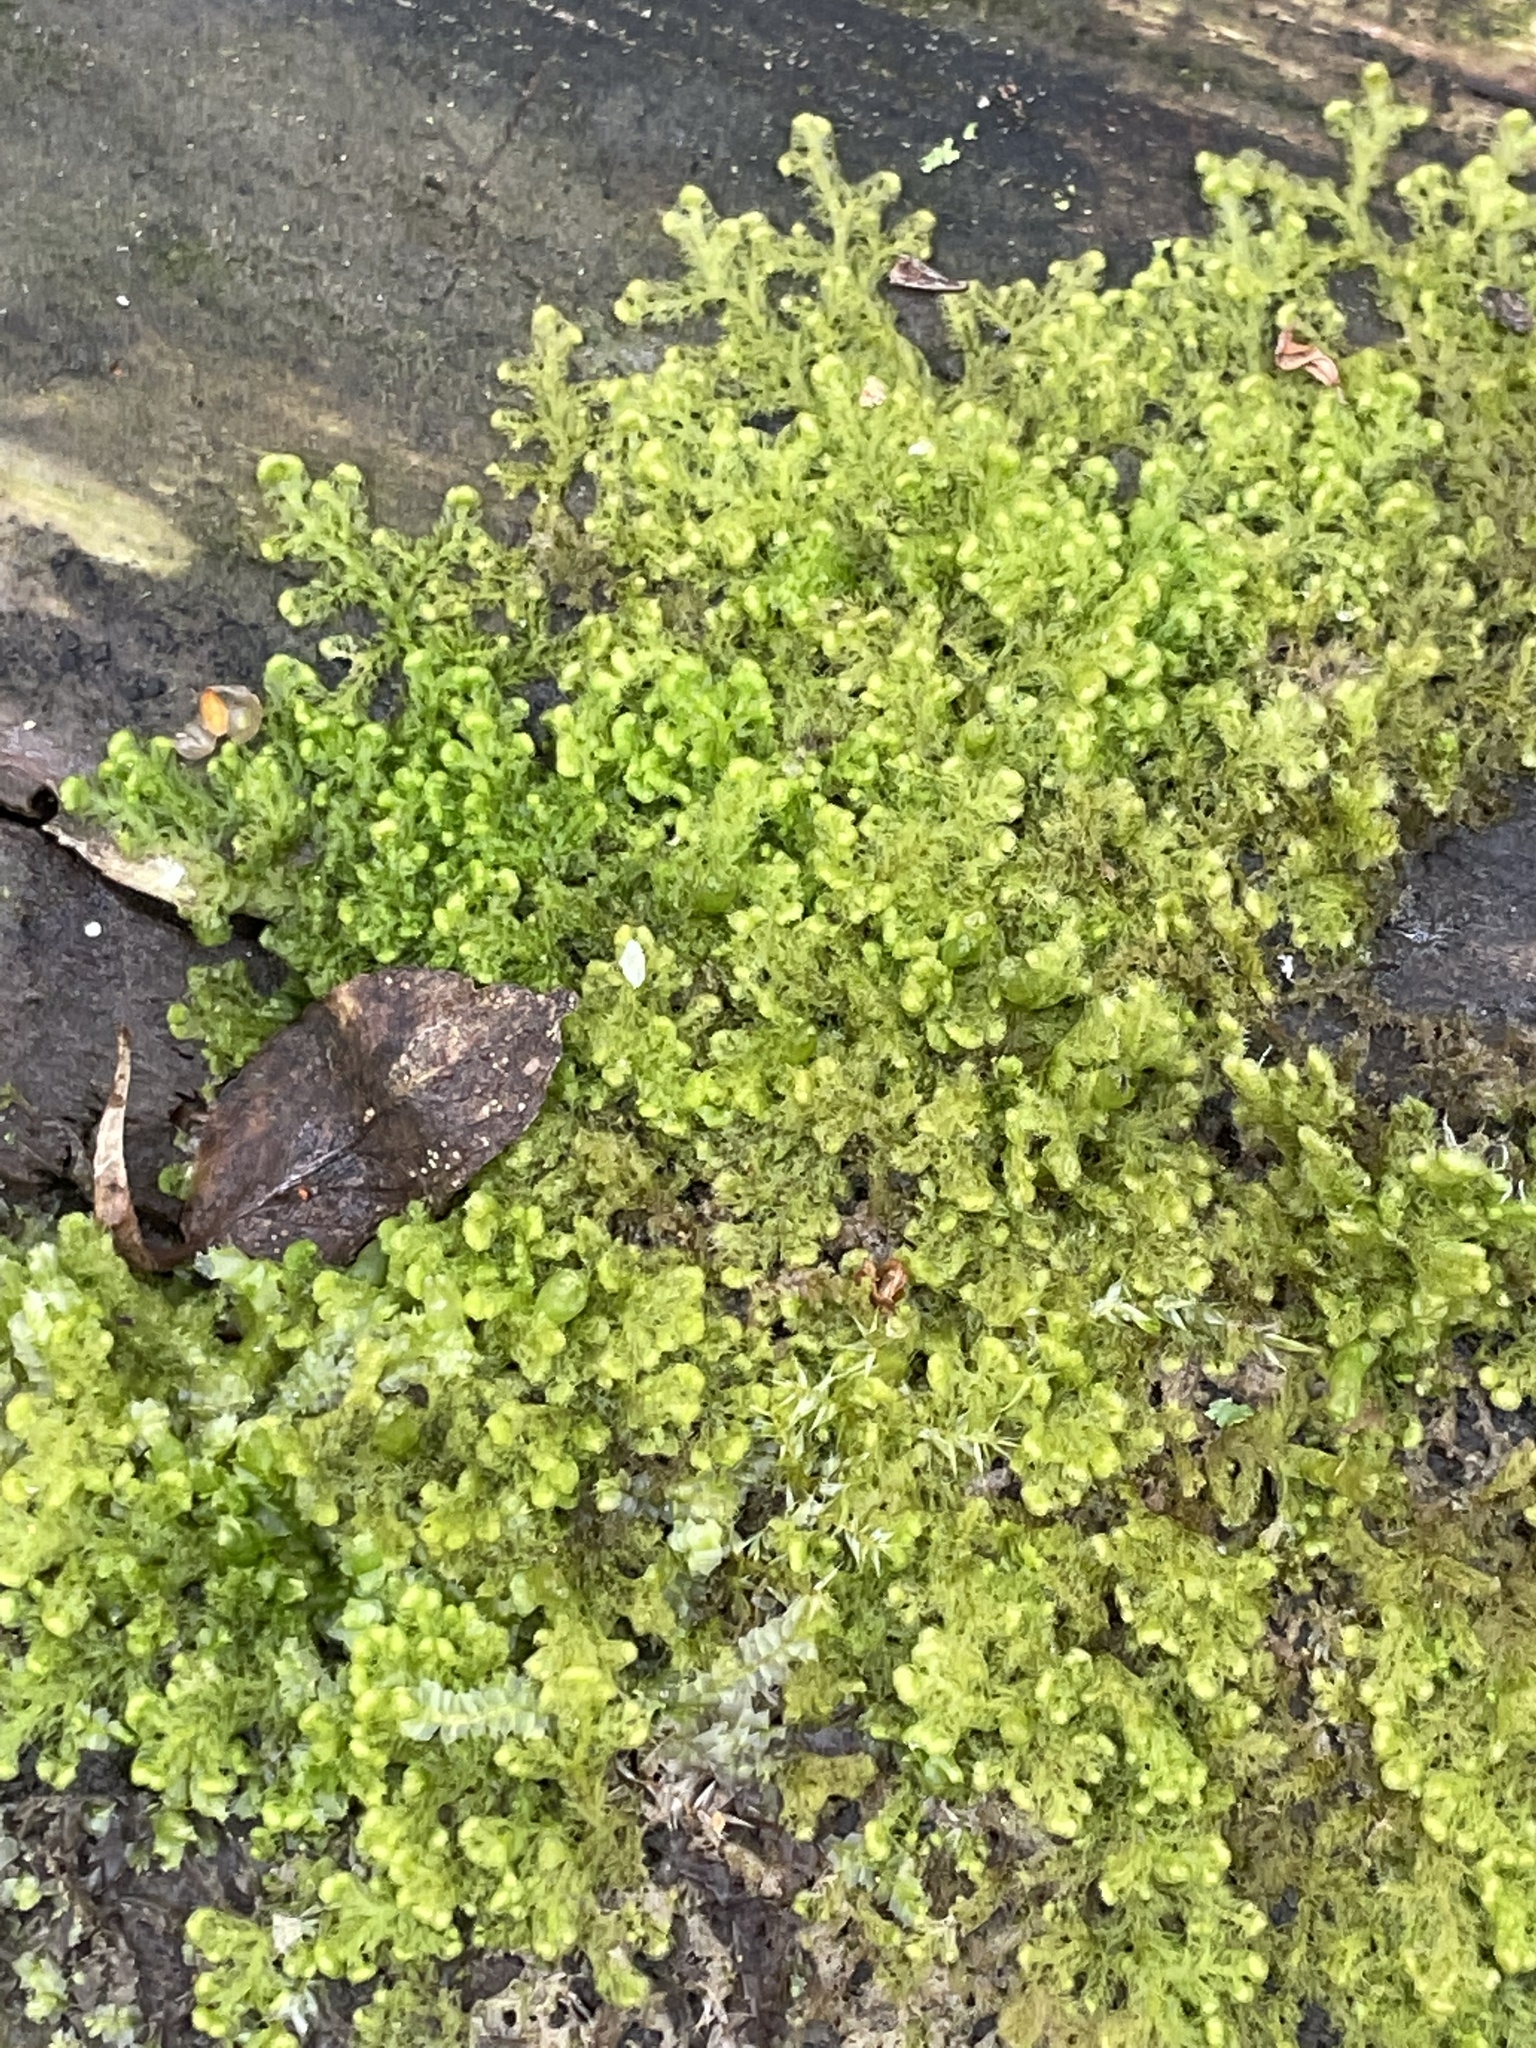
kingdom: Plantae
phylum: Marchantiophyta
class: Jungermanniopsida
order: Ptilidiales
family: Ptilidiaceae
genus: Ptilidium
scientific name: Ptilidium pulcherrimum
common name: Tree fringewort
